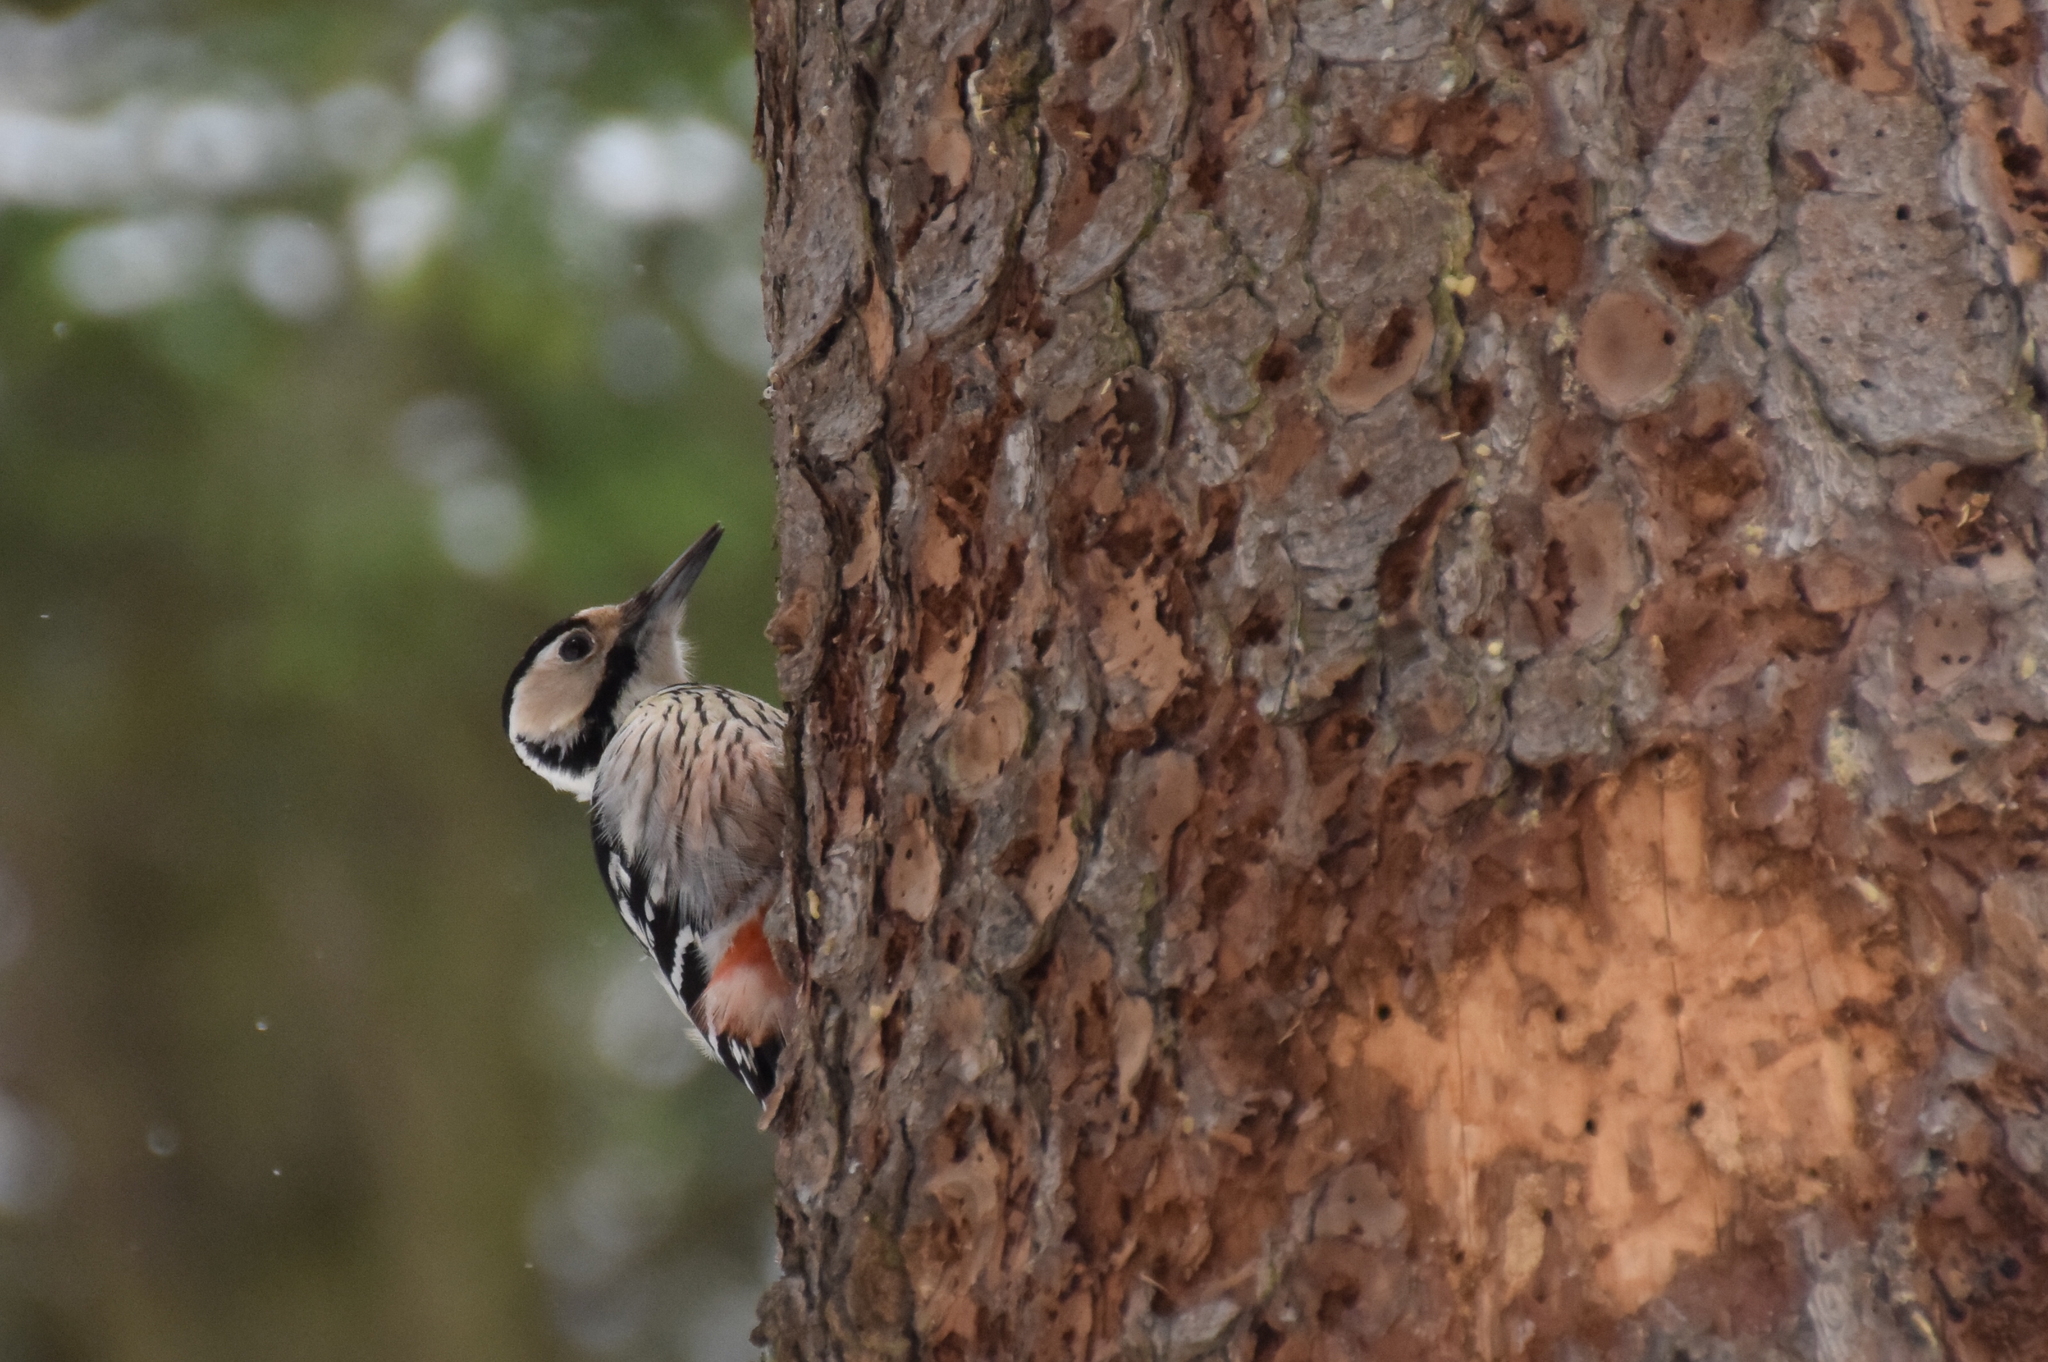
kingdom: Animalia
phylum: Chordata
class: Aves
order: Piciformes
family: Picidae
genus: Dendrocopos
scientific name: Dendrocopos leucotos
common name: White-backed woodpecker
